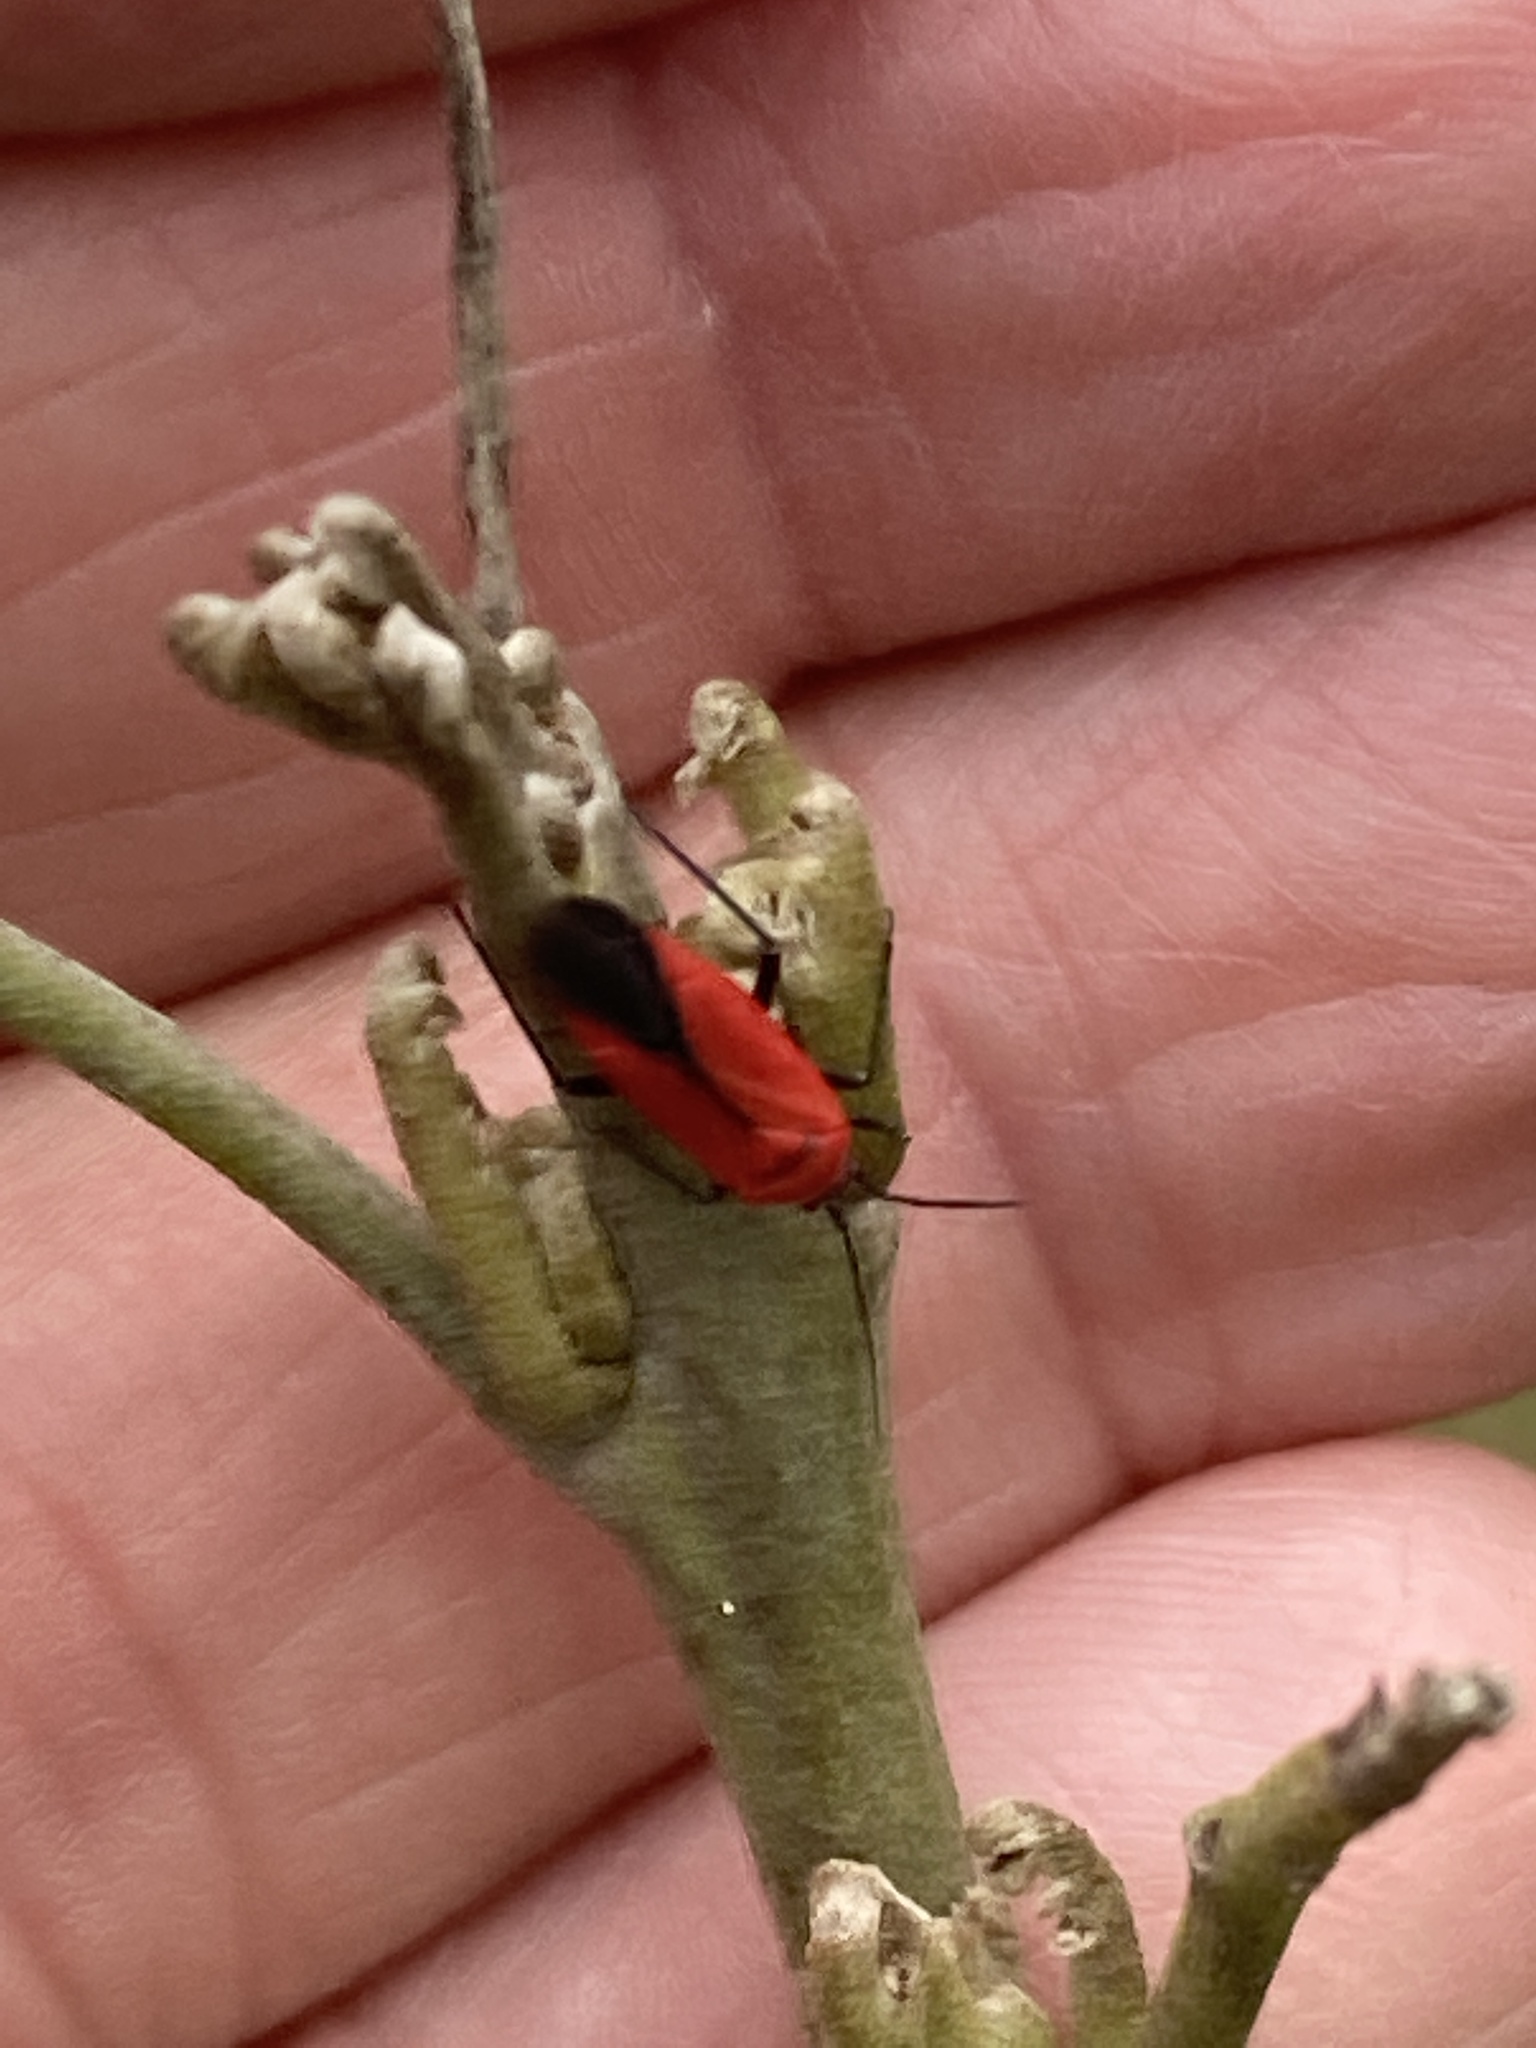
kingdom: Animalia
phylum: Arthropoda
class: Insecta
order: Hemiptera
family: Miridae
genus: Lopidea
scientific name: Lopidea major
